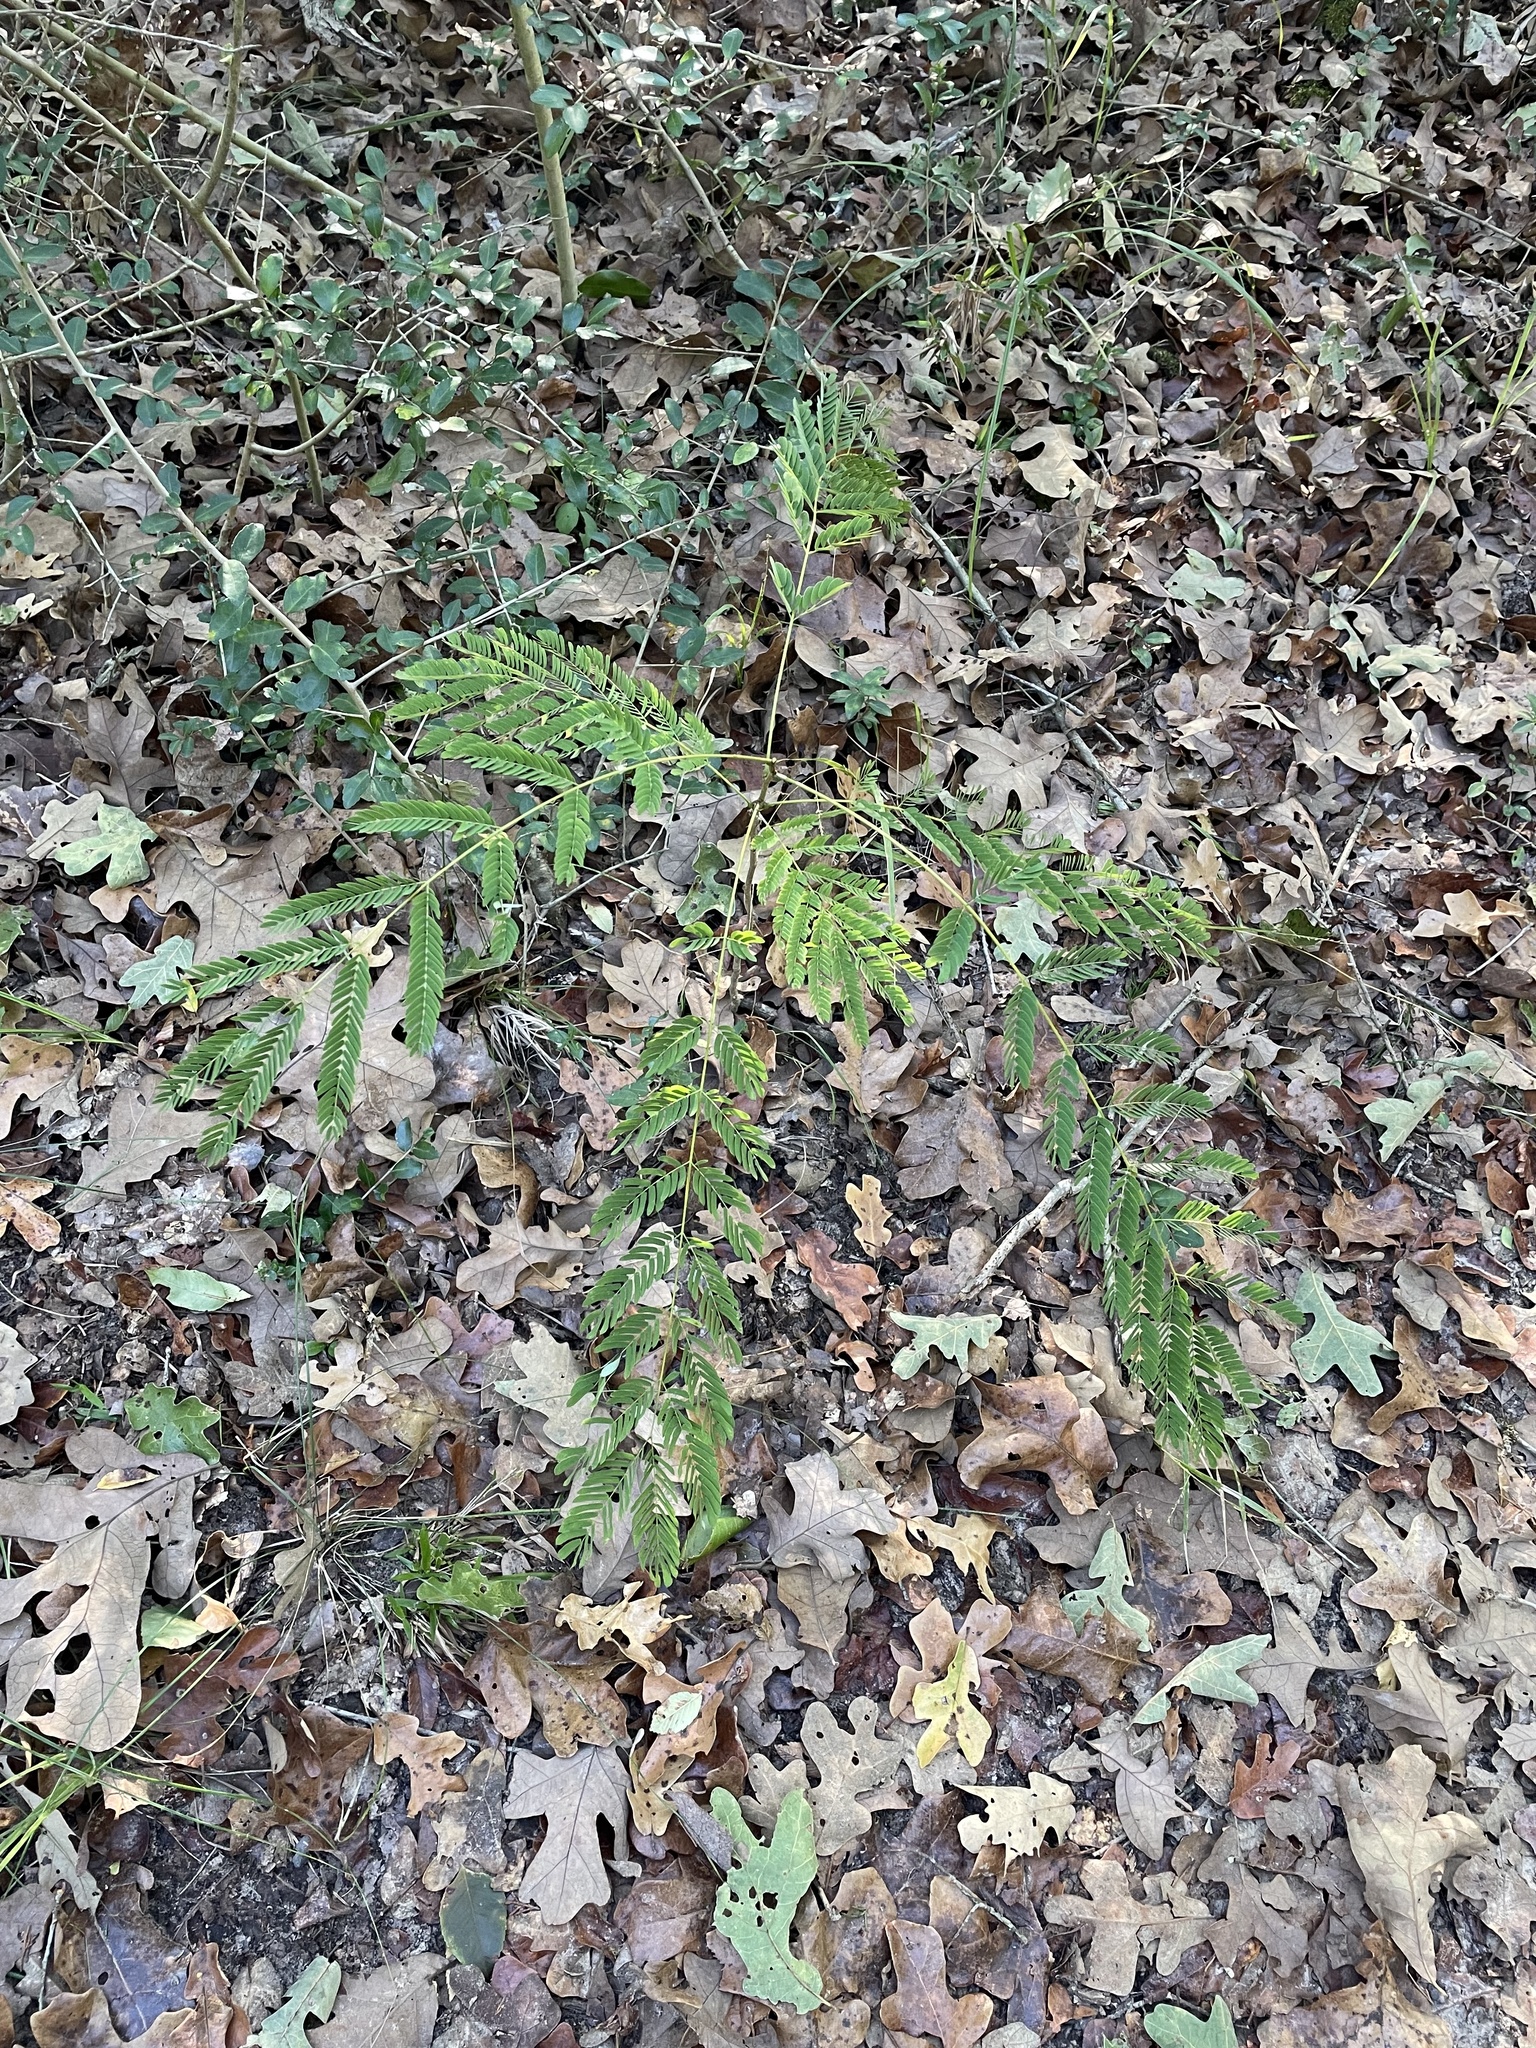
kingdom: Plantae
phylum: Tracheophyta
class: Magnoliopsida
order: Fabales
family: Fabaceae
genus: Albizia
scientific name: Albizia julibrissin
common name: Silktree
